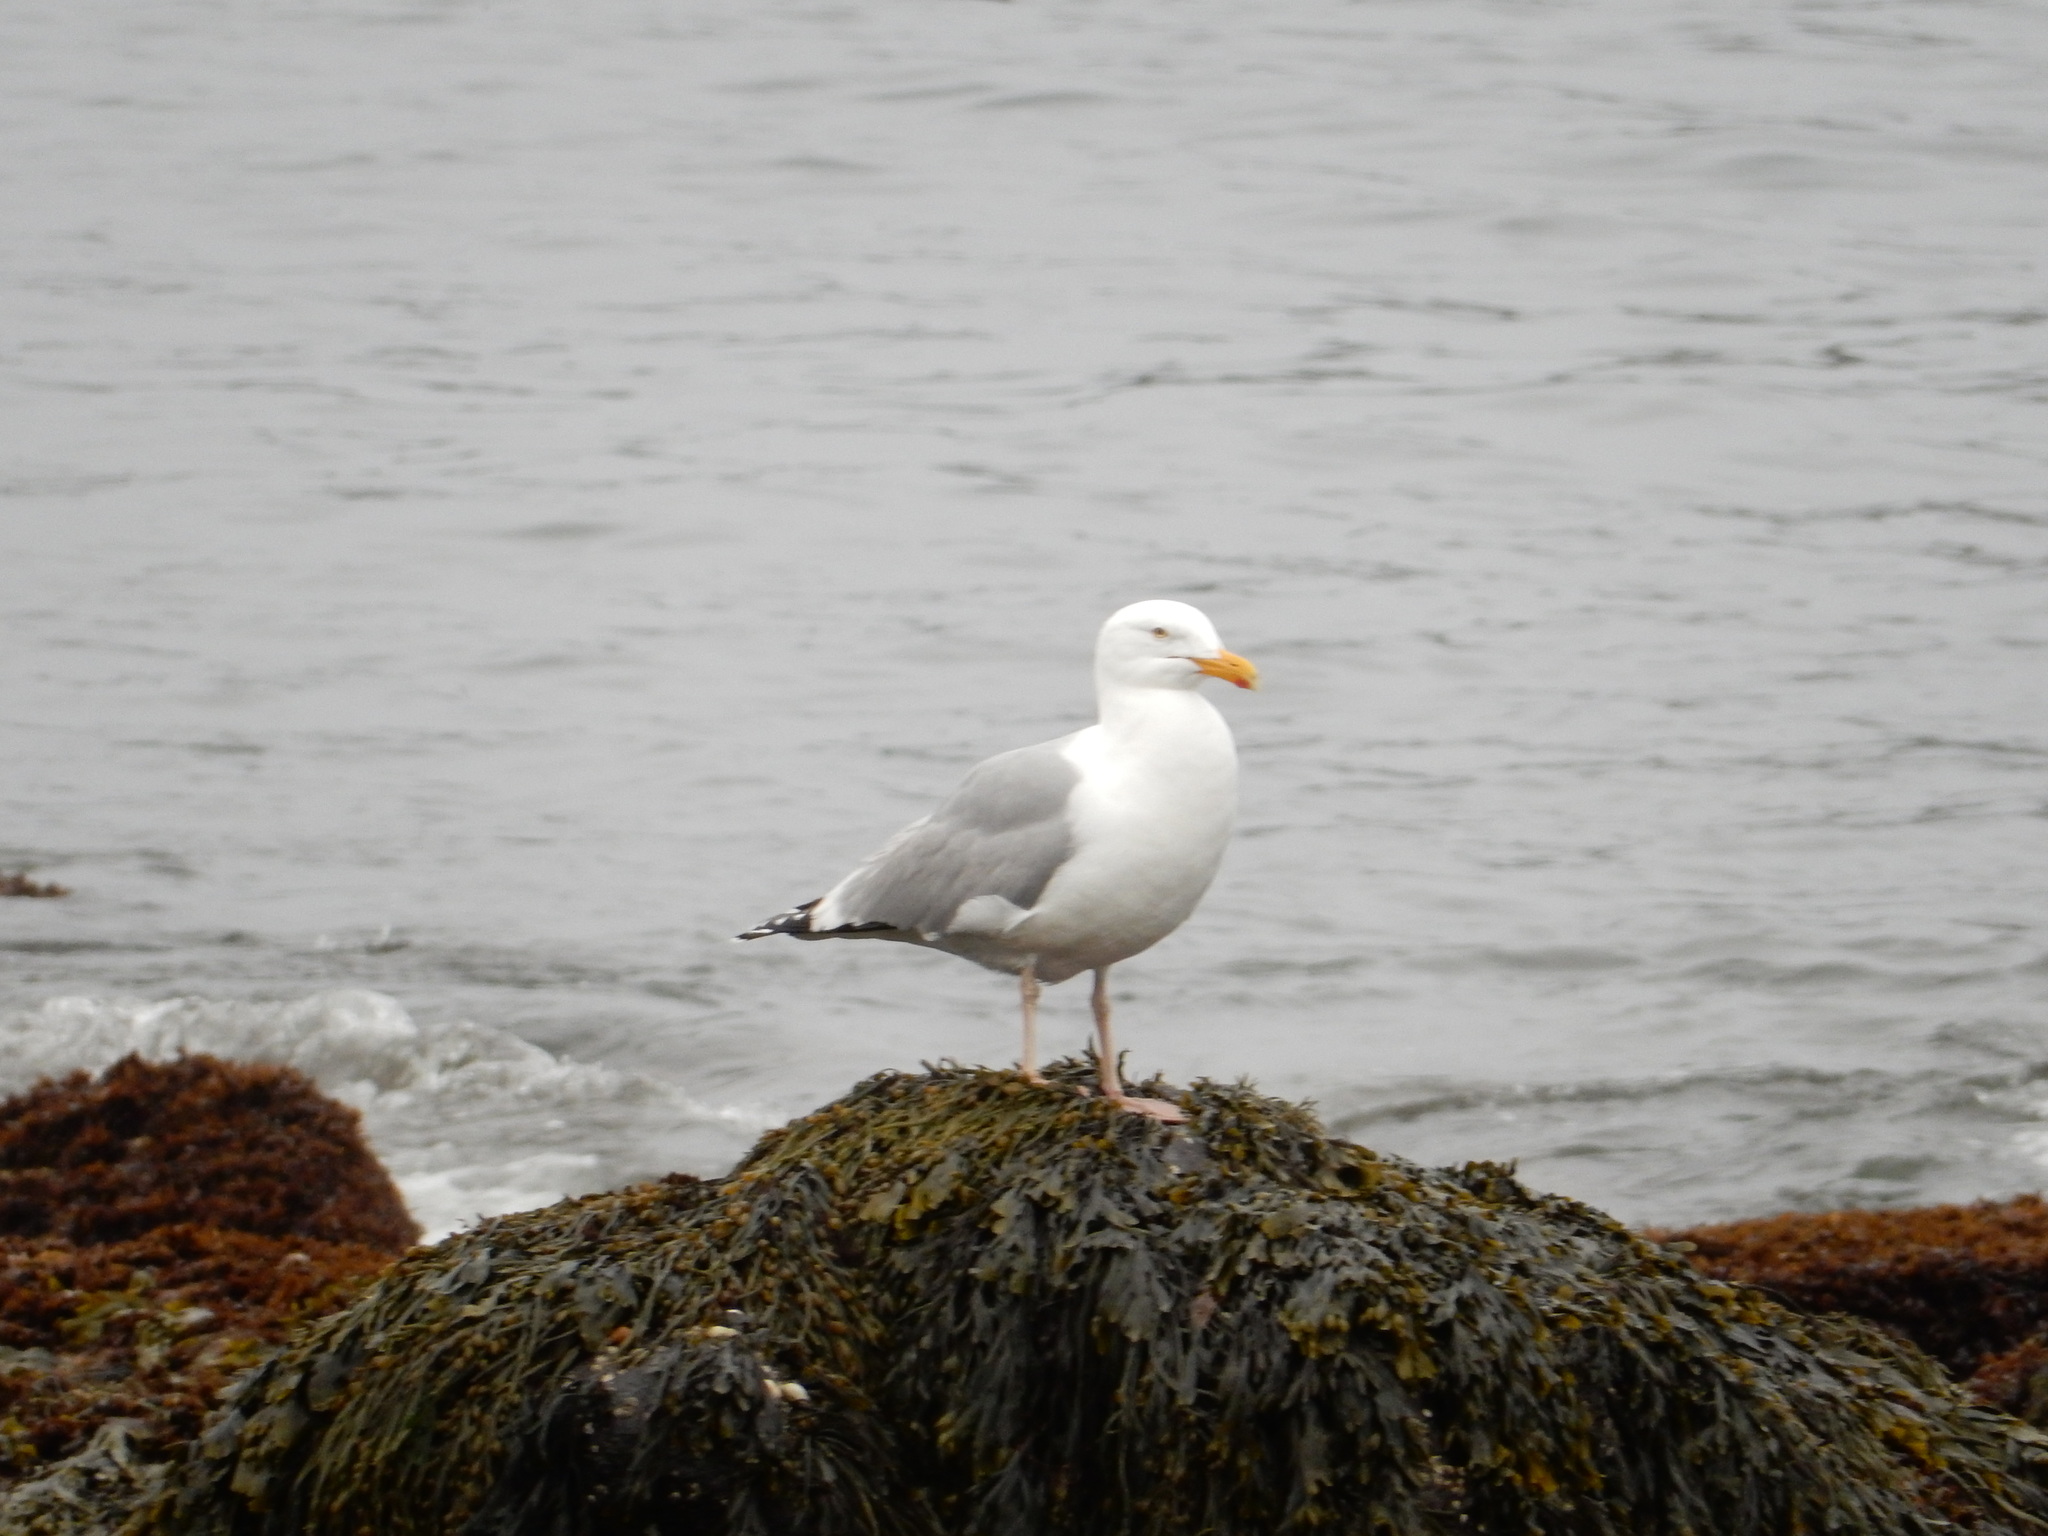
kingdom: Animalia
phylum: Chordata
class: Aves
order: Charadriiformes
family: Laridae
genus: Larus
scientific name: Larus argentatus
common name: Herring gull
